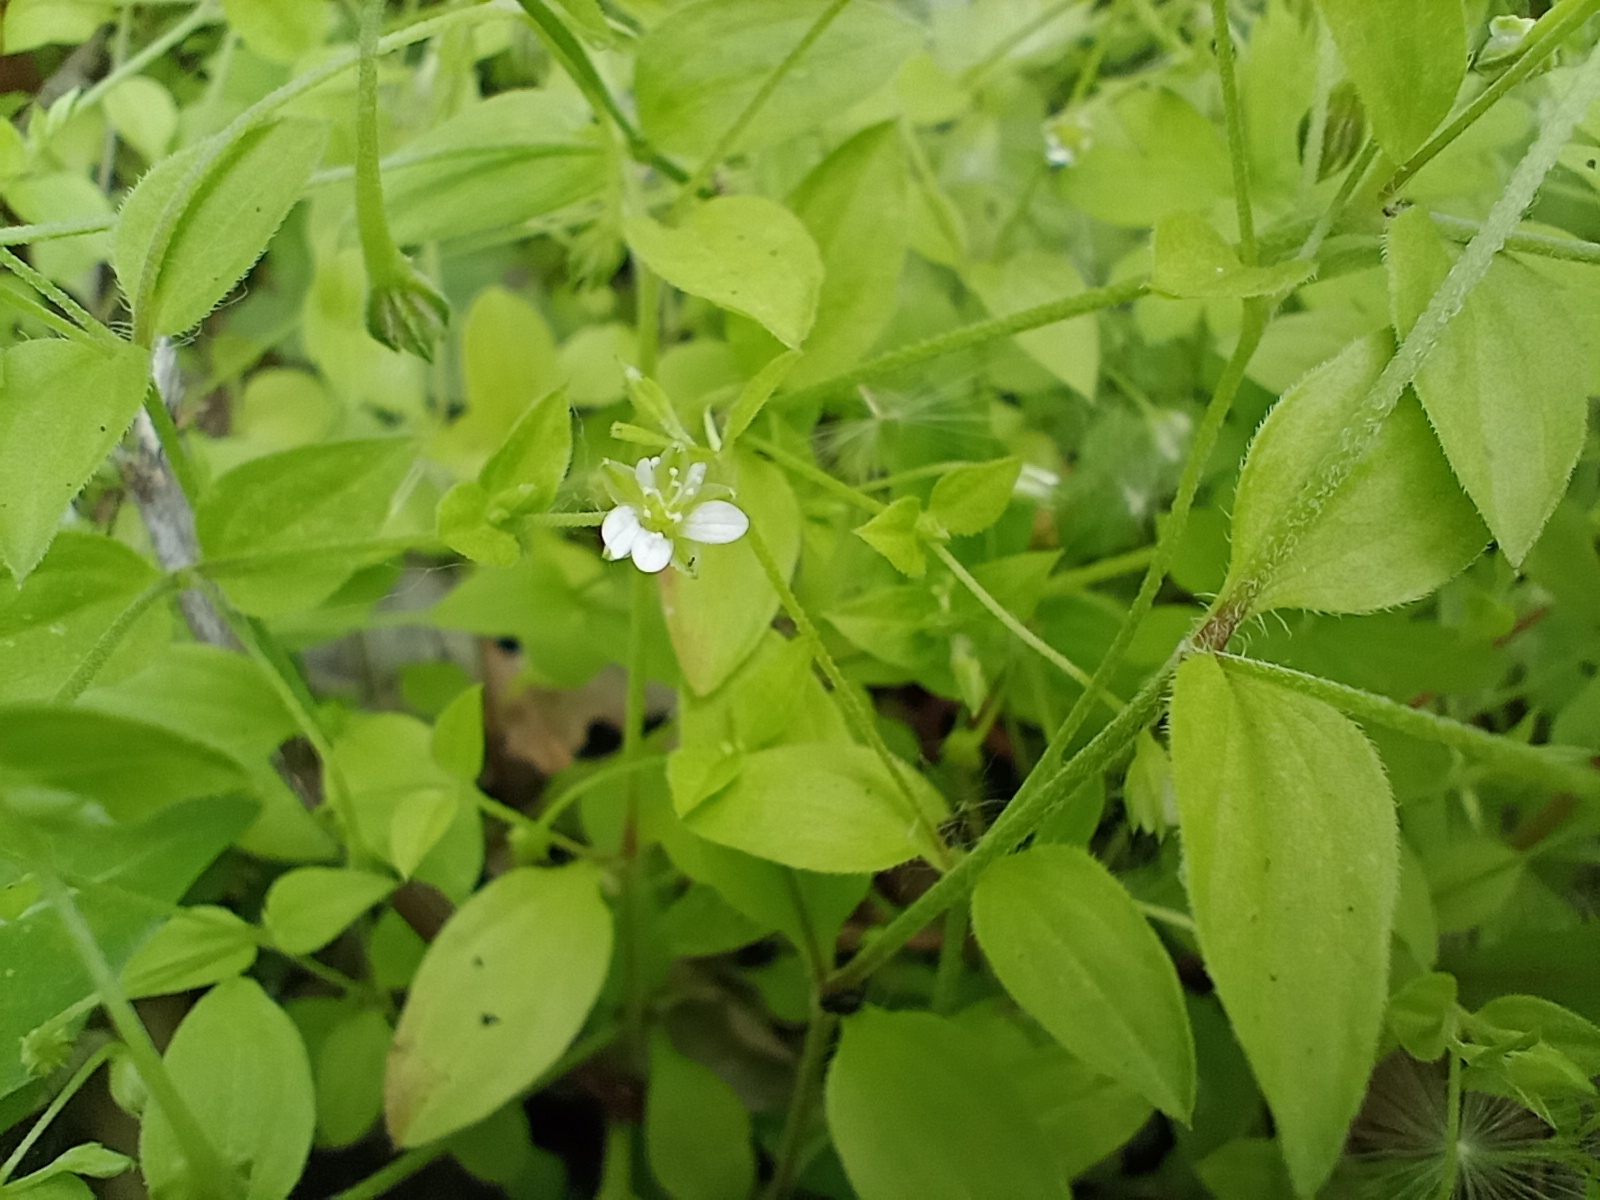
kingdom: Plantae
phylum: Tracheophyta
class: Magnoliopsida
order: Caryophyllales
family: Caryophyllaceae
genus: Moehringia
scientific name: Moehringia trinervia
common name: Three-nerved sandwort
